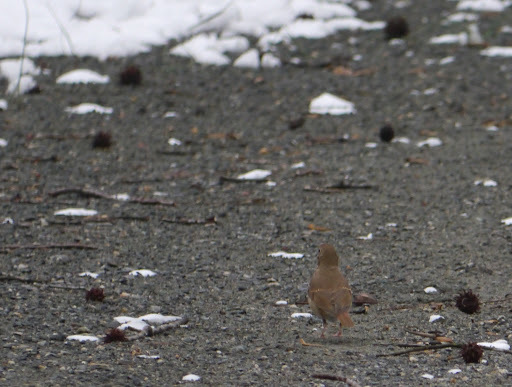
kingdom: Animalia
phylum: Chordata
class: Aves
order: Passeriformes
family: Turdidae
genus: Catharus
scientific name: Catharus guttatus
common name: Hermit thrush
